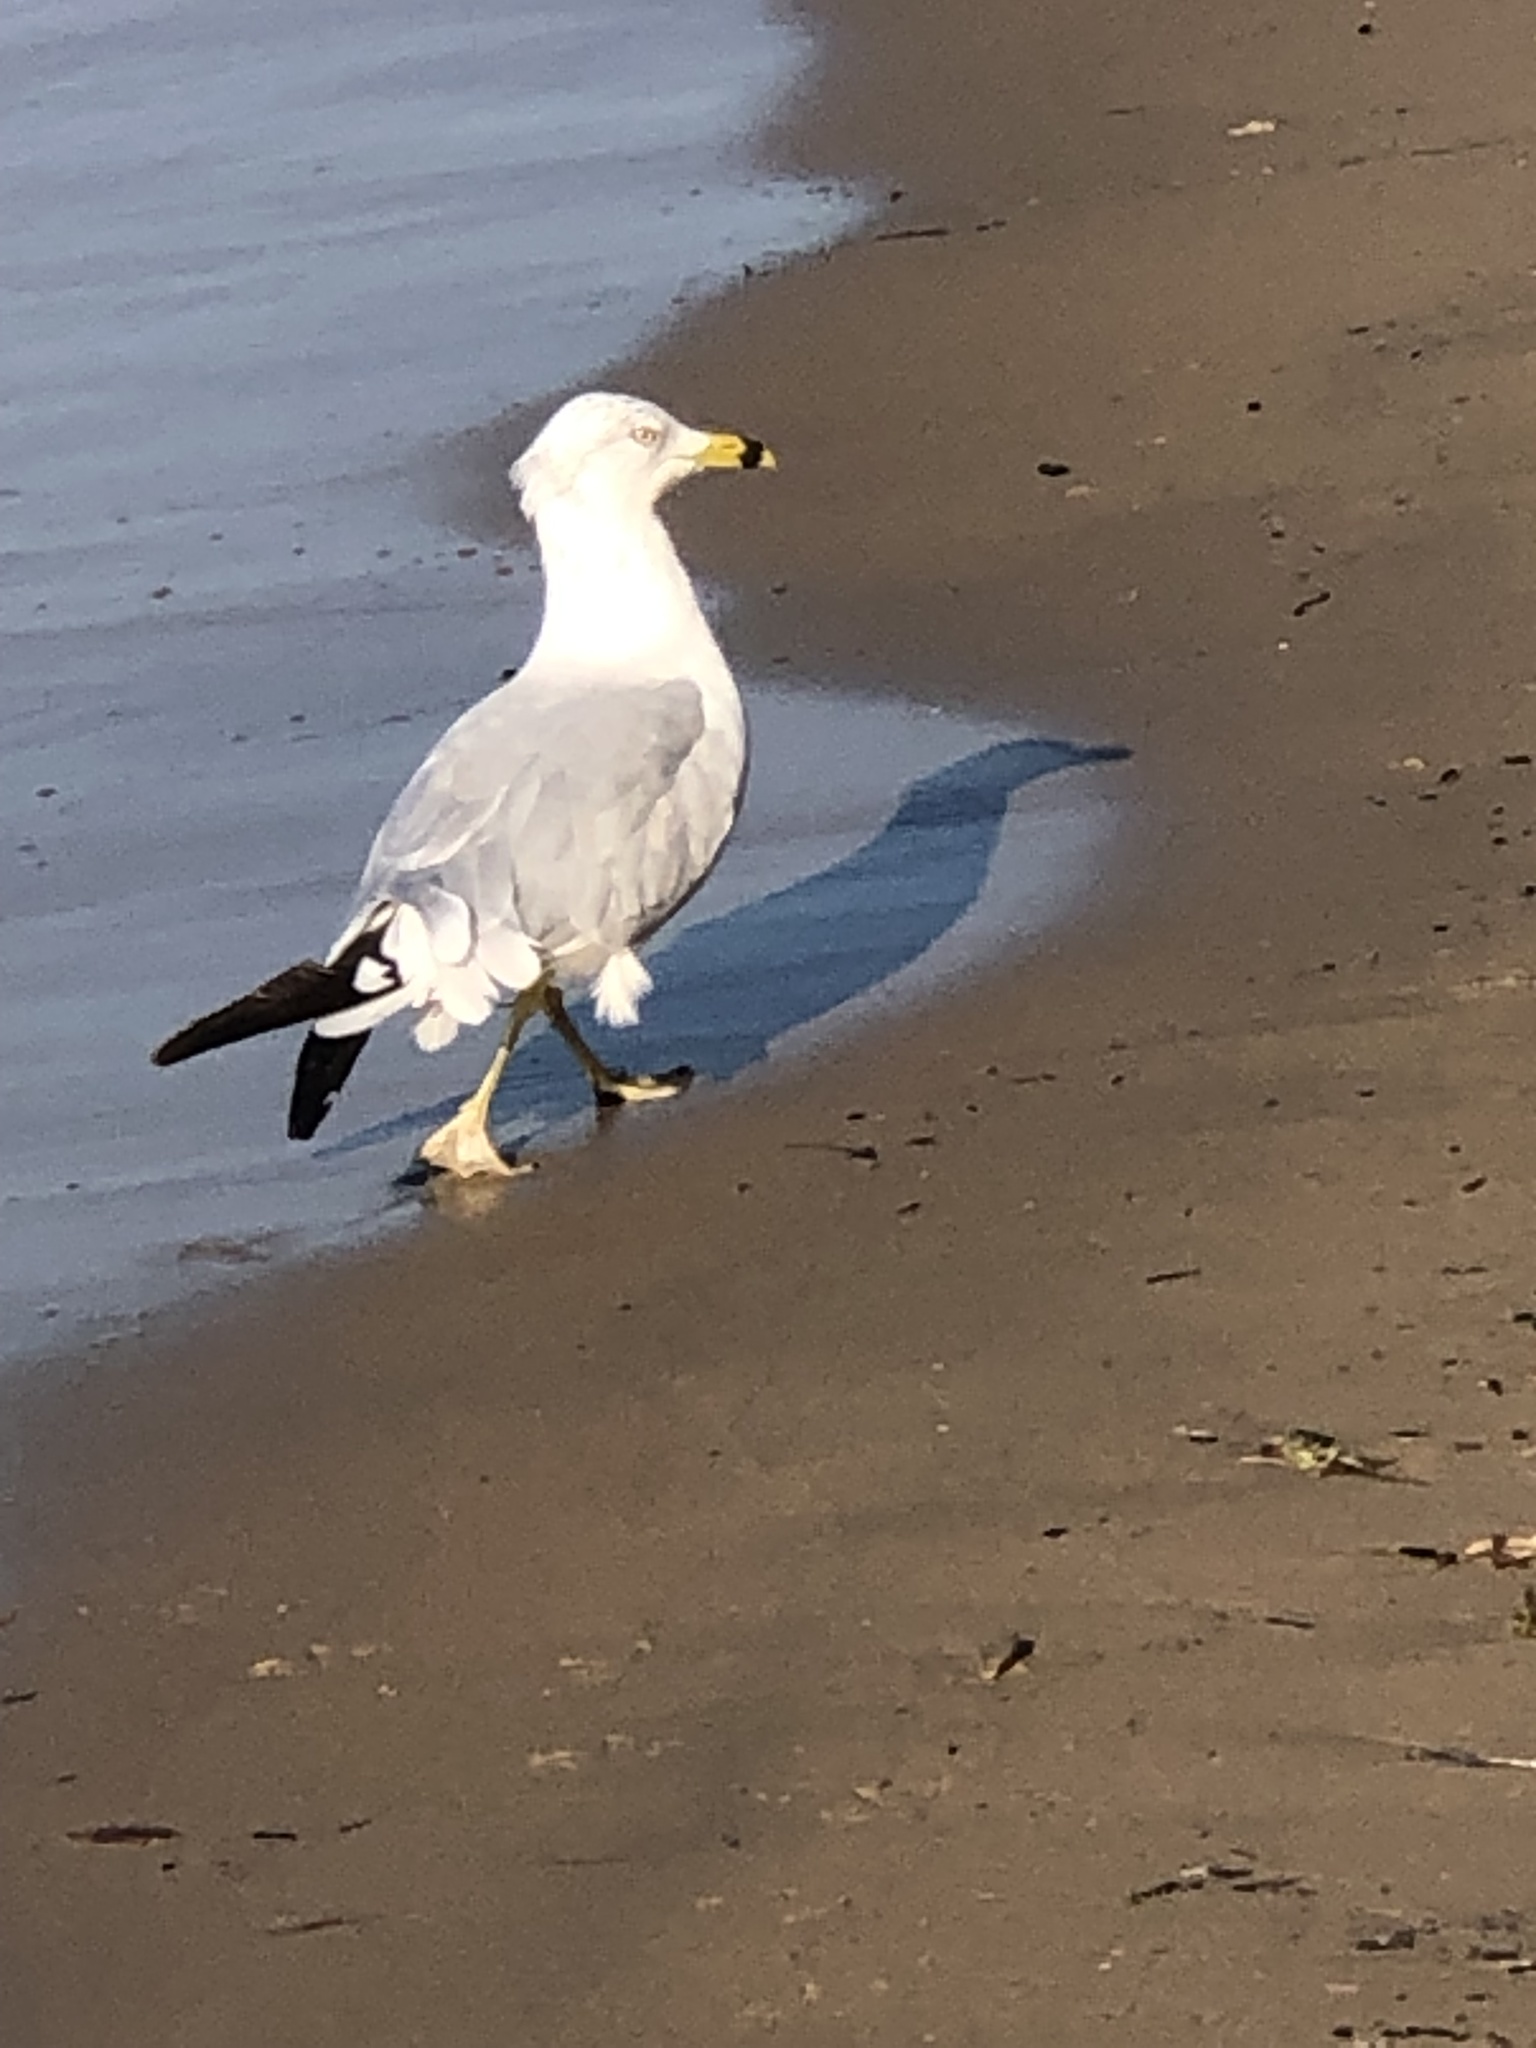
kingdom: Animalia
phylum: Chordata
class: Aves
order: Charadriiformes
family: Laridae
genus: Larus
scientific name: Larus delawarensis
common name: Ring-billed gull
